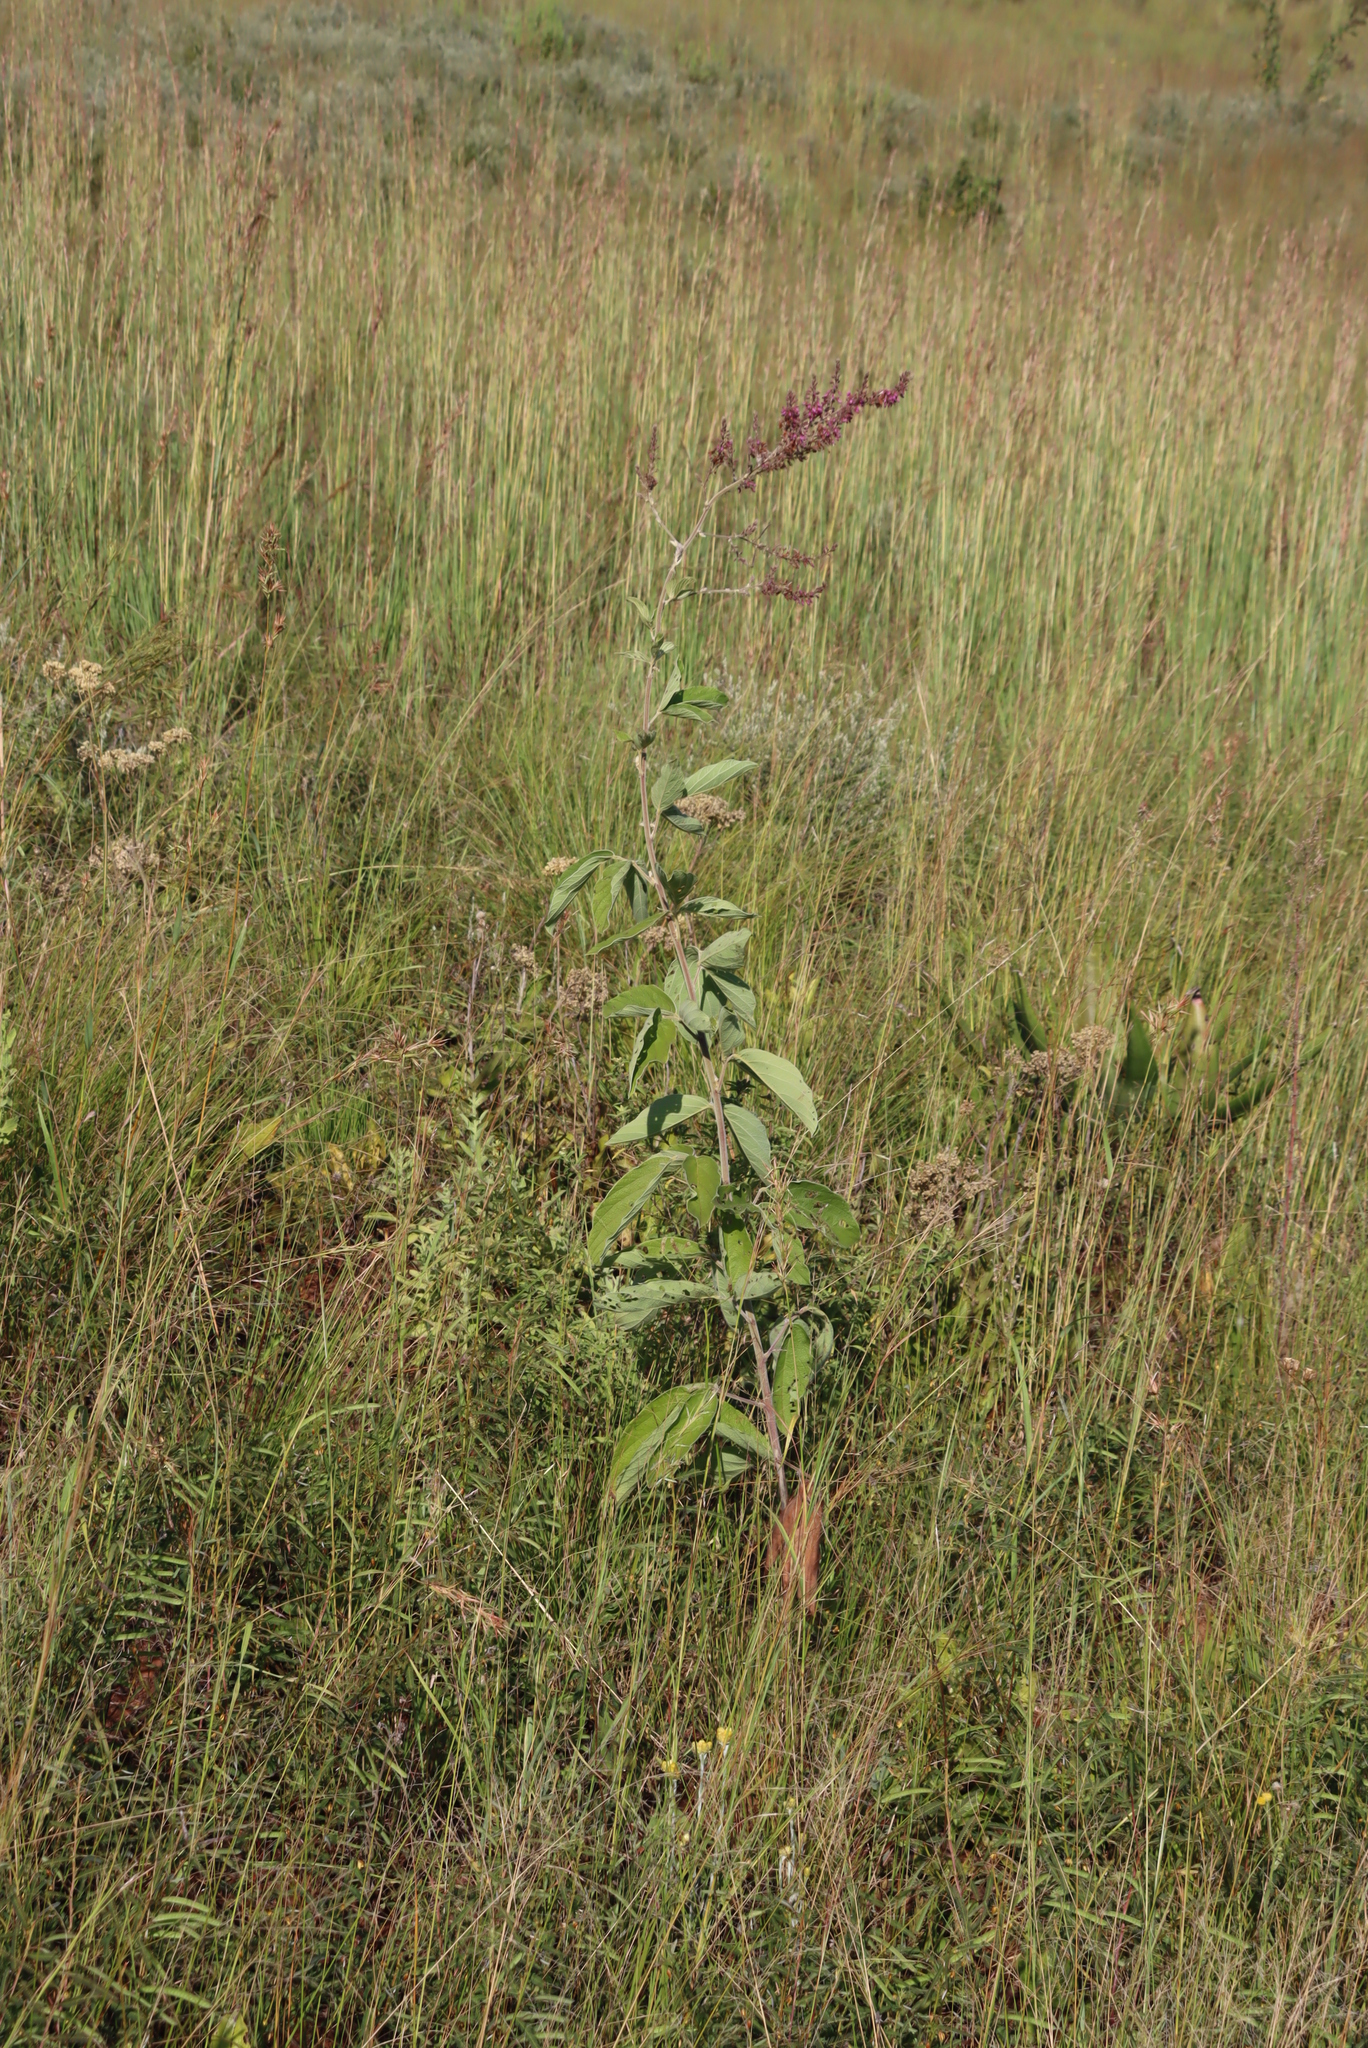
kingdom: Plantae
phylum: Tracheophyta
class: Magnoliopsida
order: Fabales
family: Fabaceae
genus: Pseudarthria
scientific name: Pseudarthria hookeri
